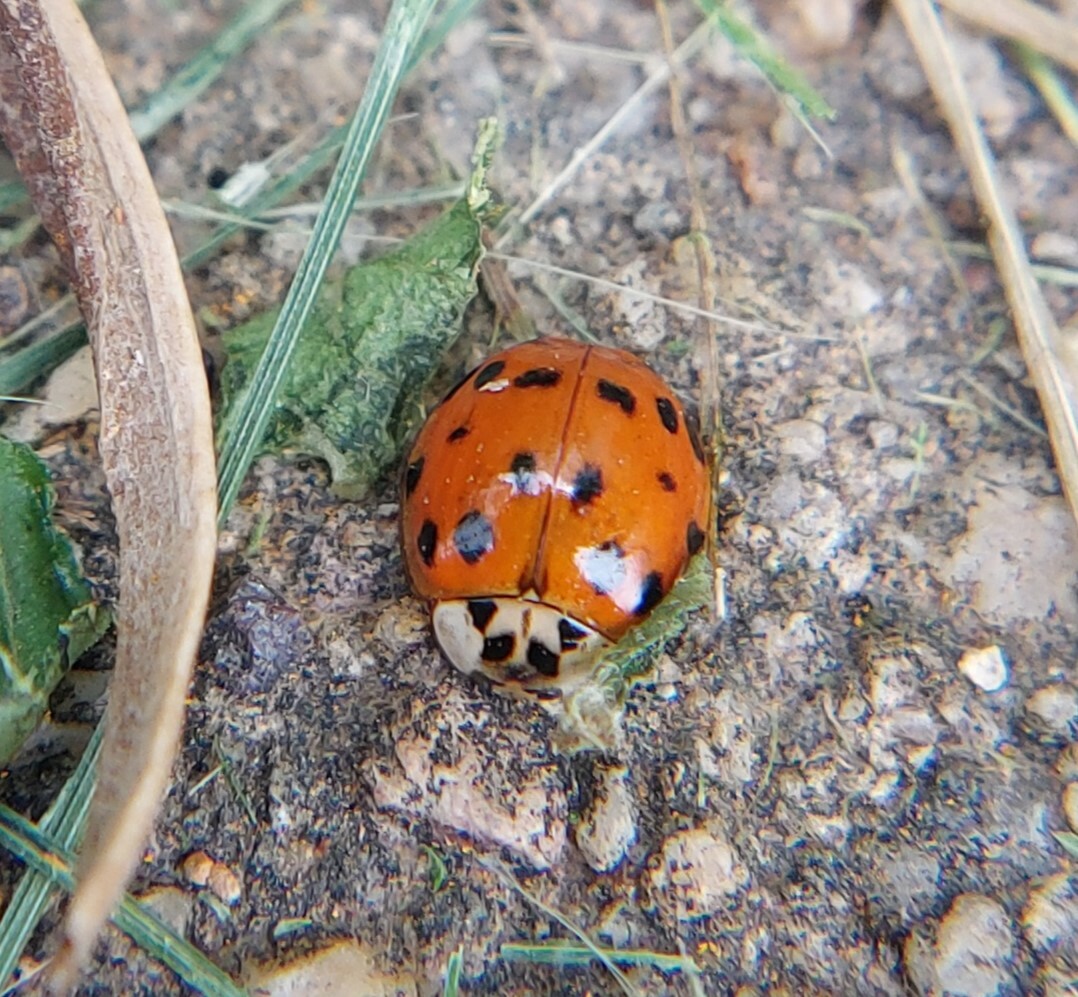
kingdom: Animalia
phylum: Arthropoda
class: Insecta
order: Coleoptera
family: Coccinellidae
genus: Harmonia
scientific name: Harmonia axyridis
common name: Harlequin ladybird
